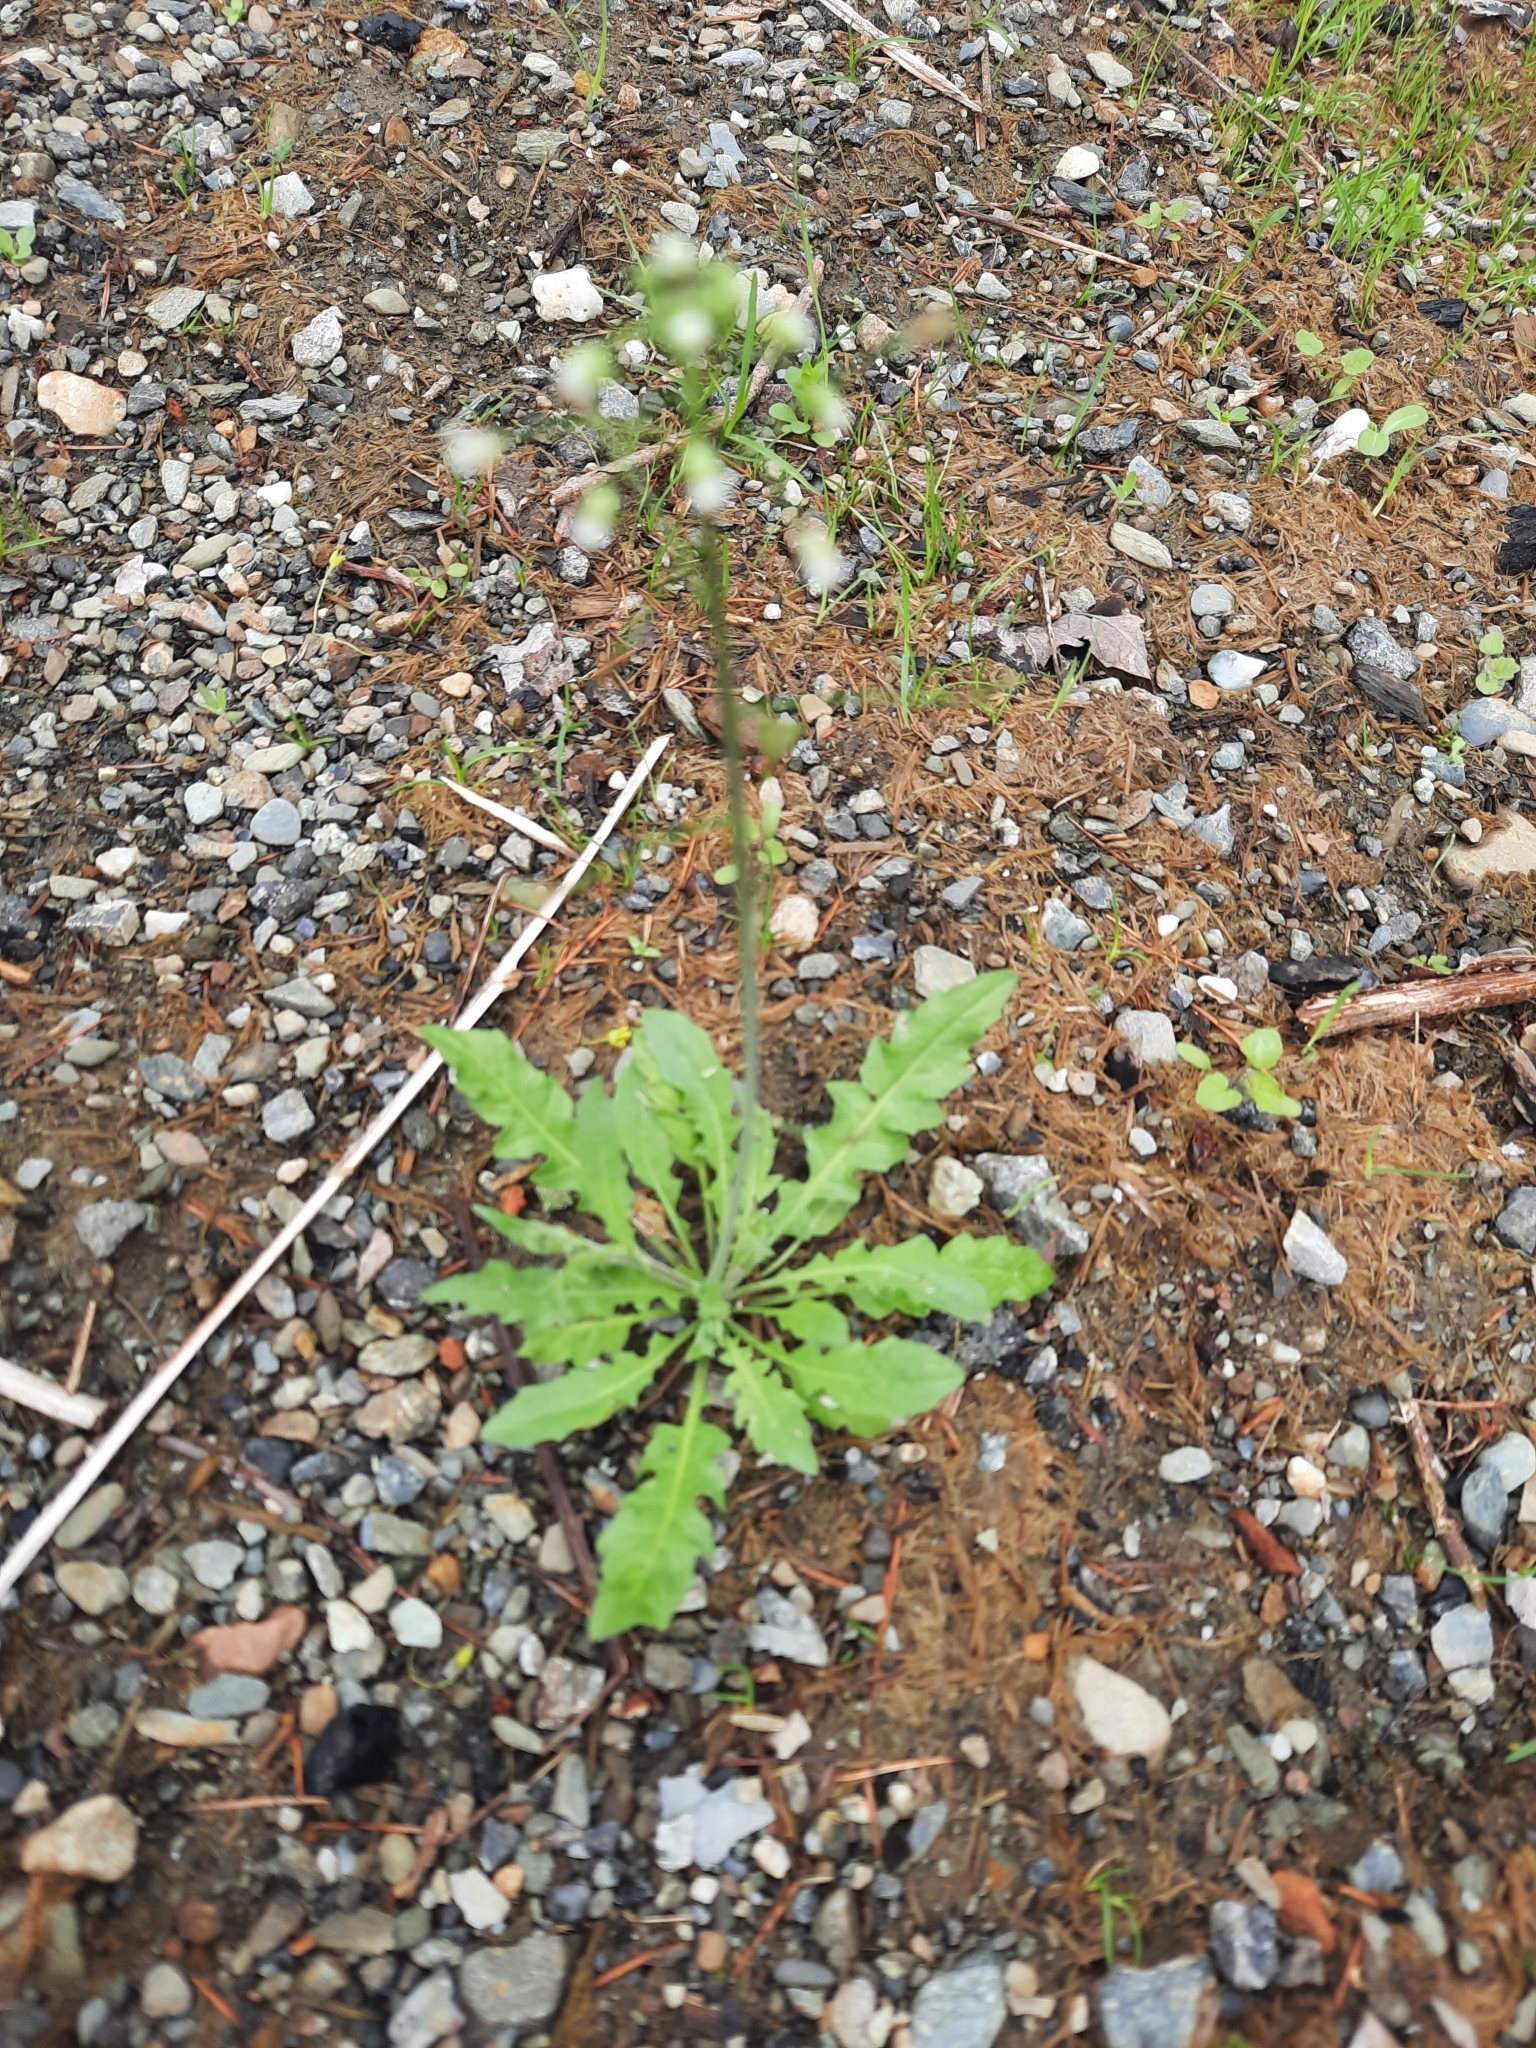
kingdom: Plantae
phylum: Tracheophyta
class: Magnoliopsida
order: Brassicales
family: Brassicaceae
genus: Capsella
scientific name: Capsella bursa-pastoris
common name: Shepherd's purse
